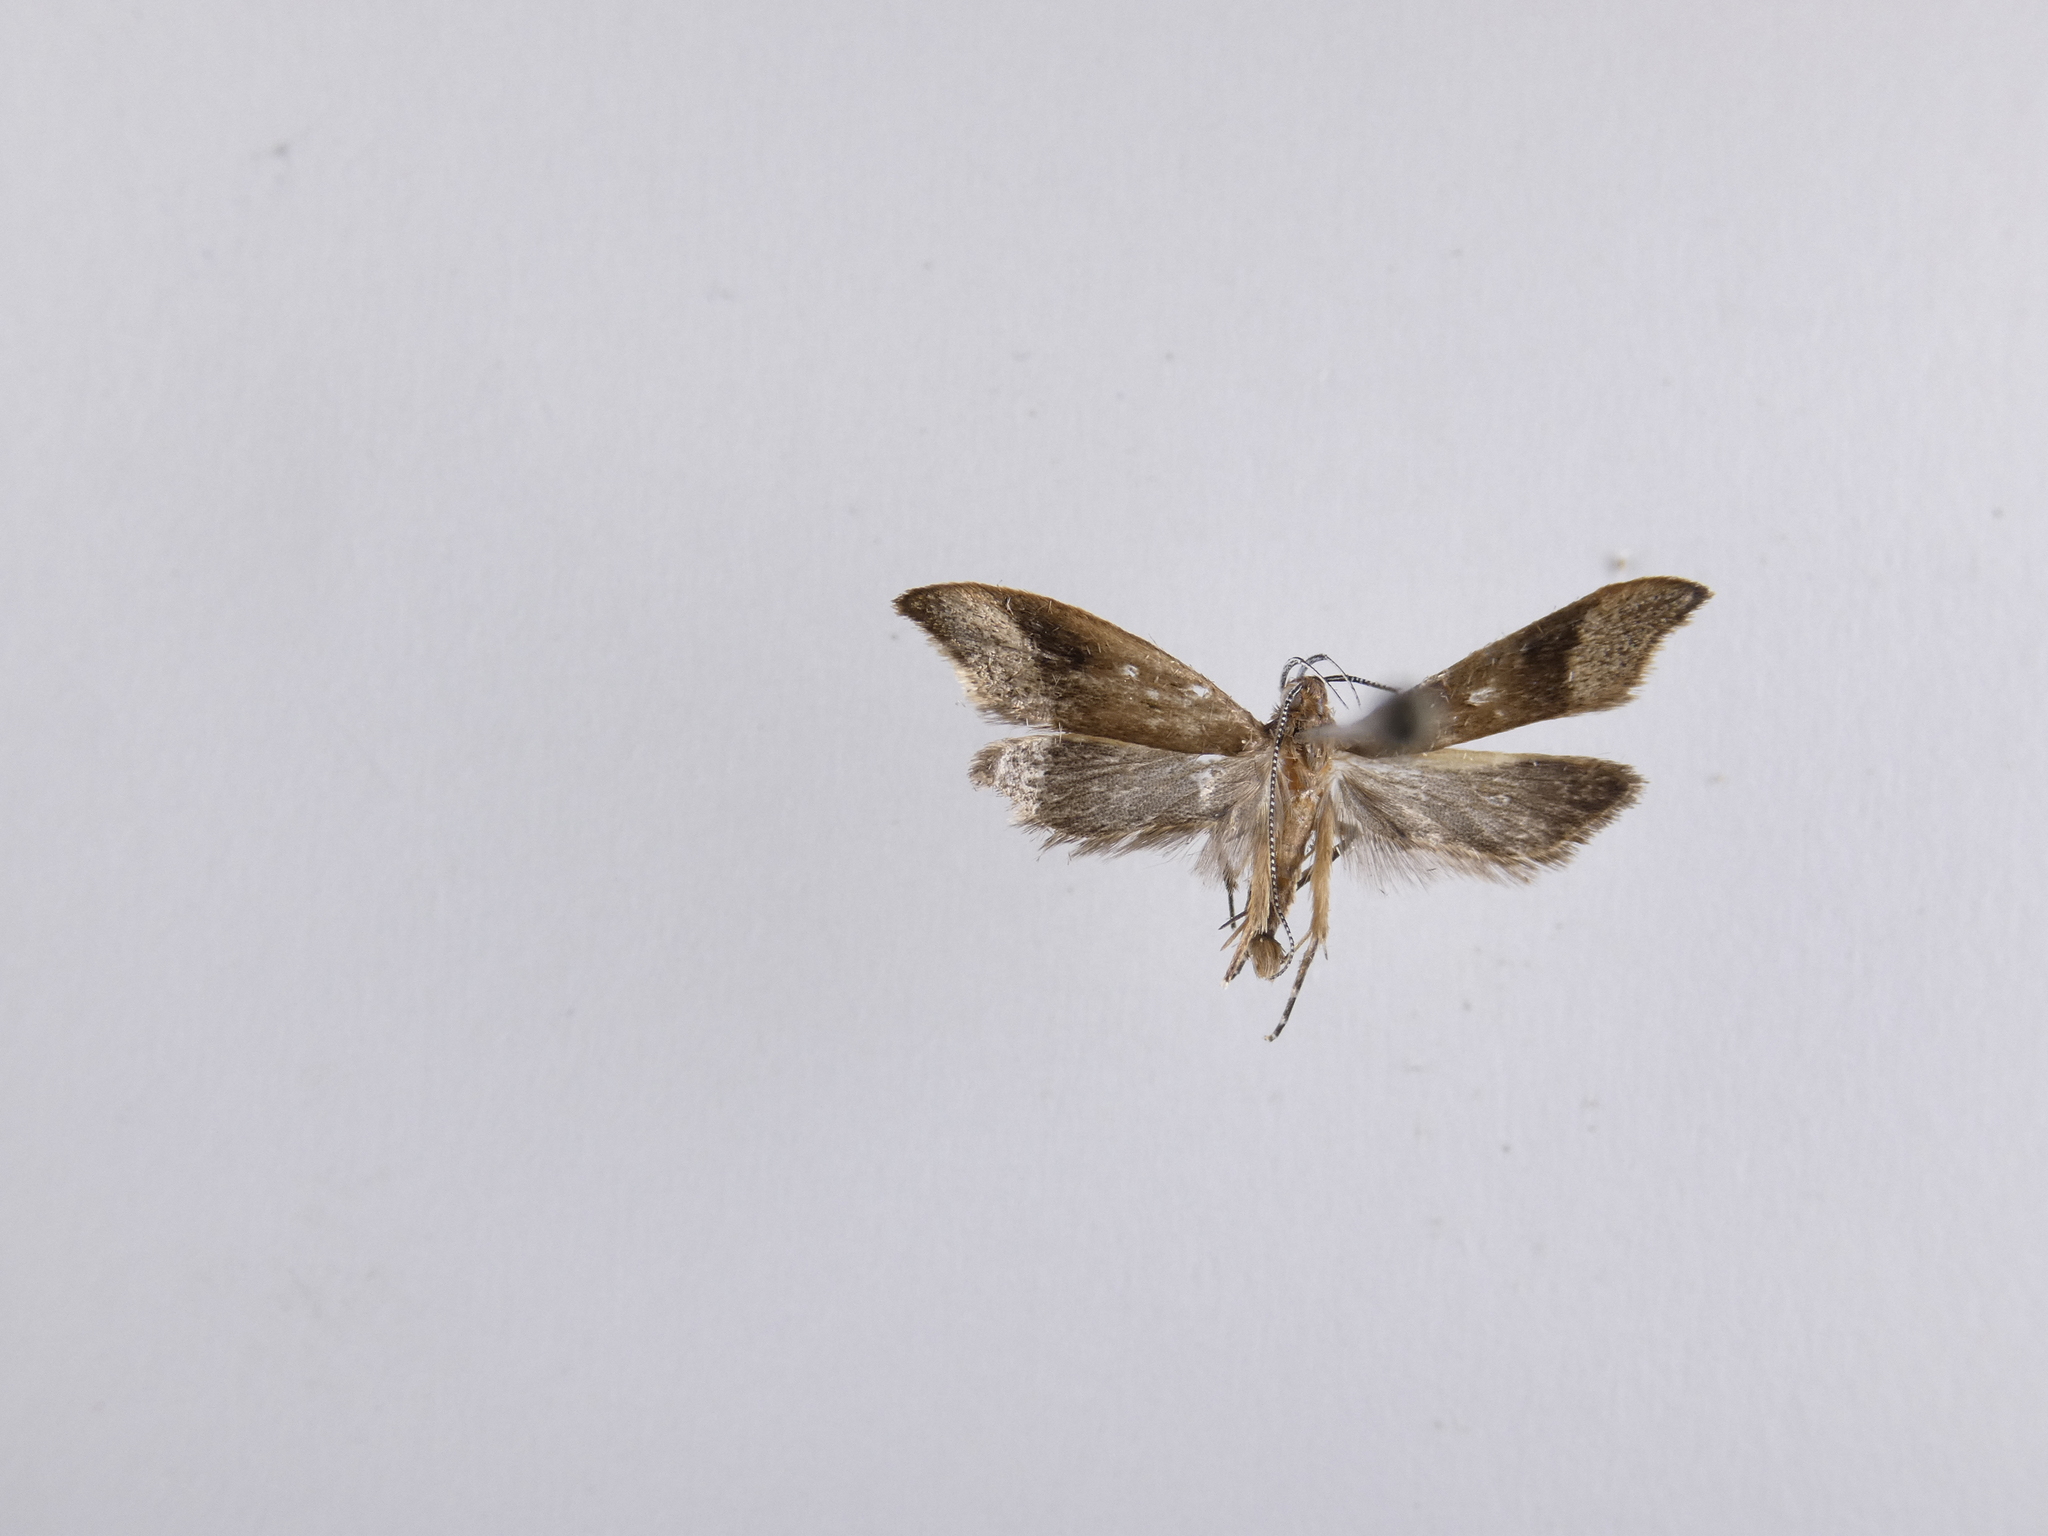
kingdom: Animalia
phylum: Arthropoda
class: Insecta
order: Lepidoptera
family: Oecophoridae
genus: Gymnobathra
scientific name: Gymnobathra hyetodes
